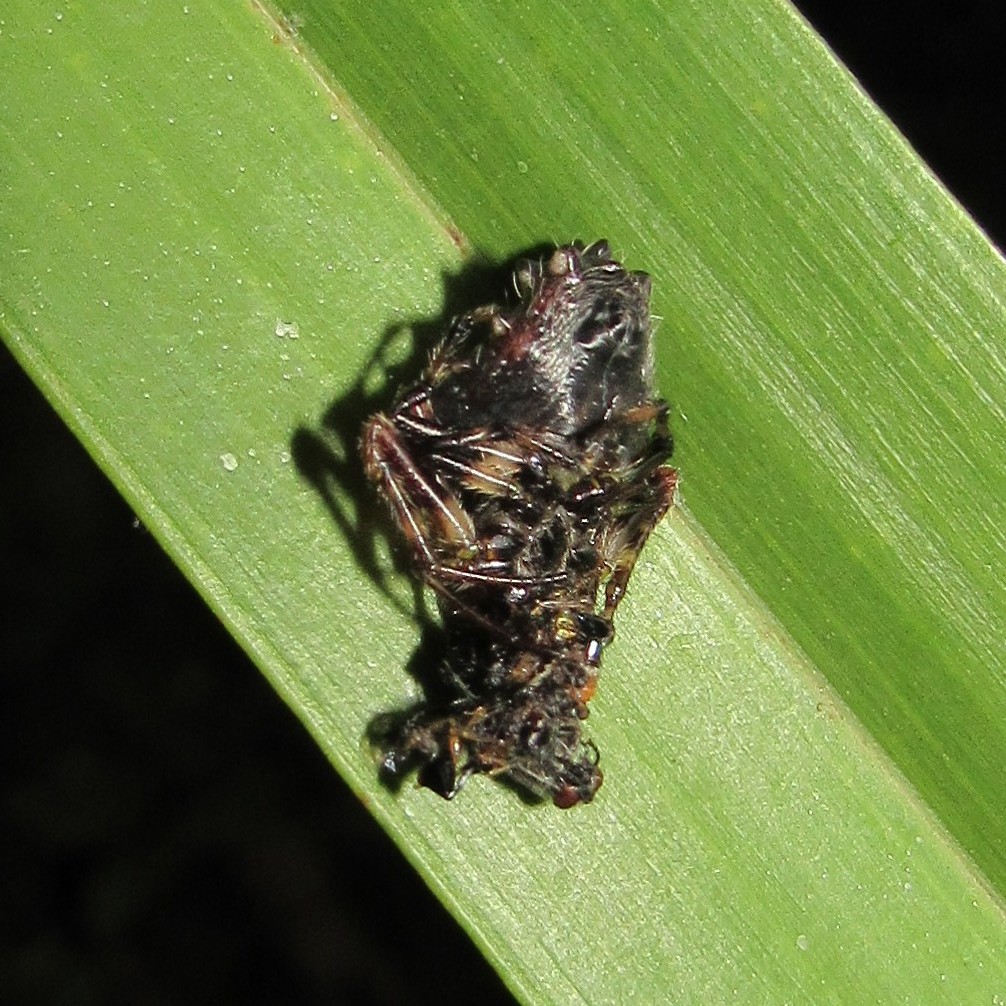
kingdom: Animalia
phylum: Arthropoda
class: Arachnida
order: Araneae
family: Araneidae
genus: Verrucosa
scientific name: Verrucosa meridionalis
